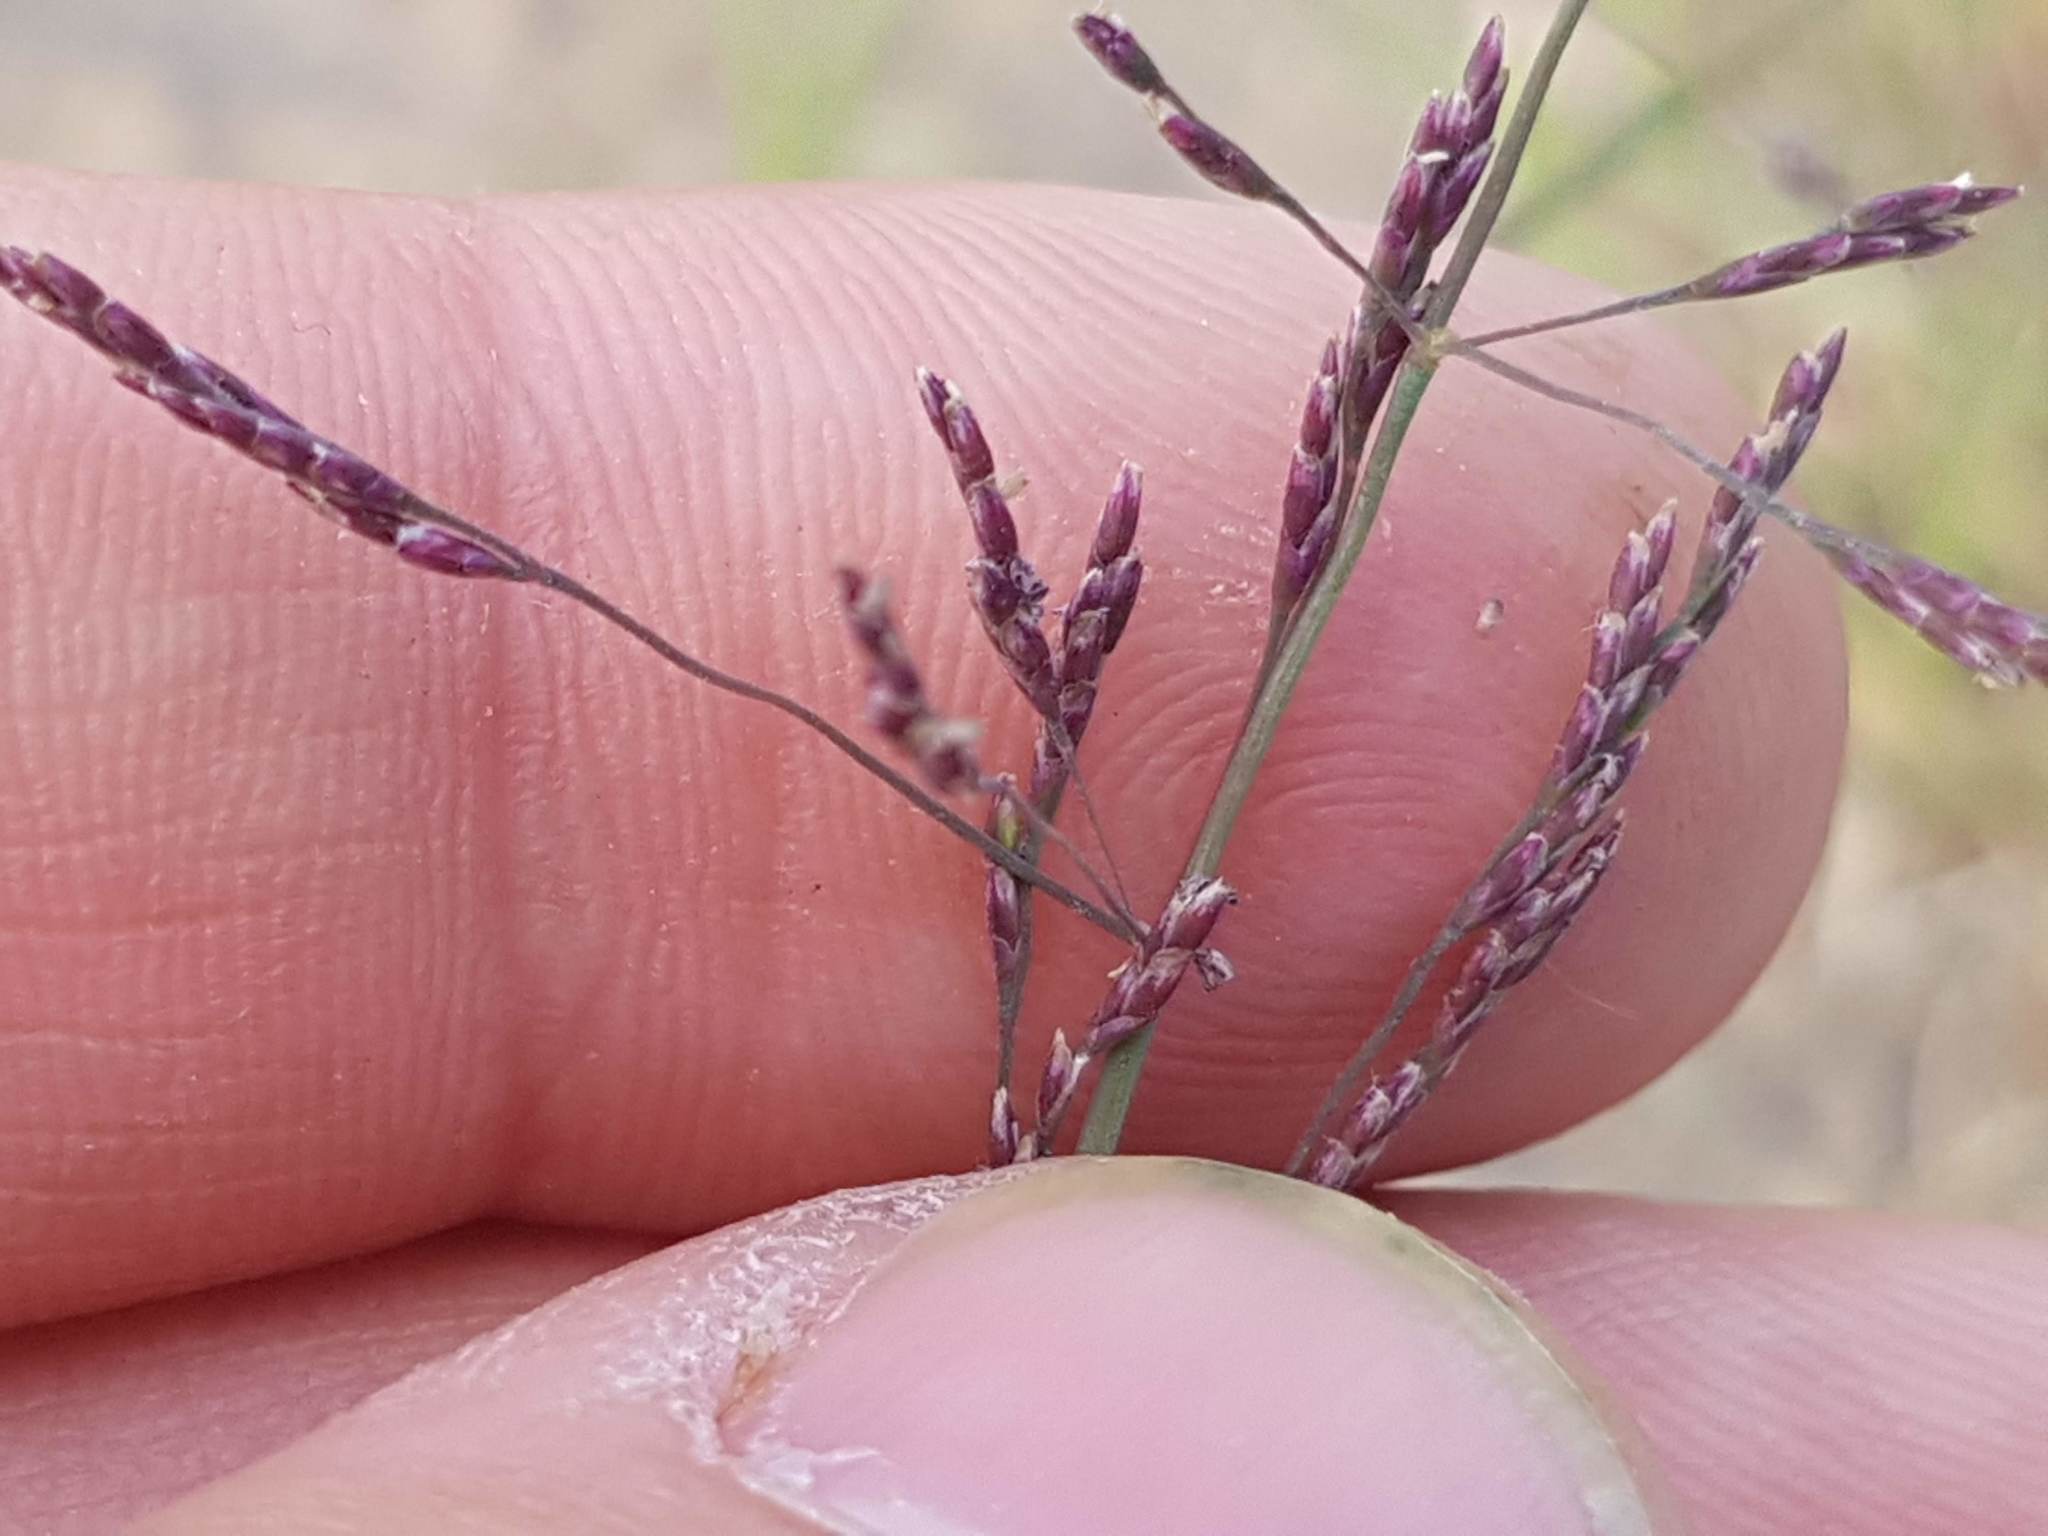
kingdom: Plantae
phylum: Tracheophyta
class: Liliopsida
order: Poales
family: Poaceae
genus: Puccinellia
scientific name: Puccinellia distans
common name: Weeping alkaligrass
